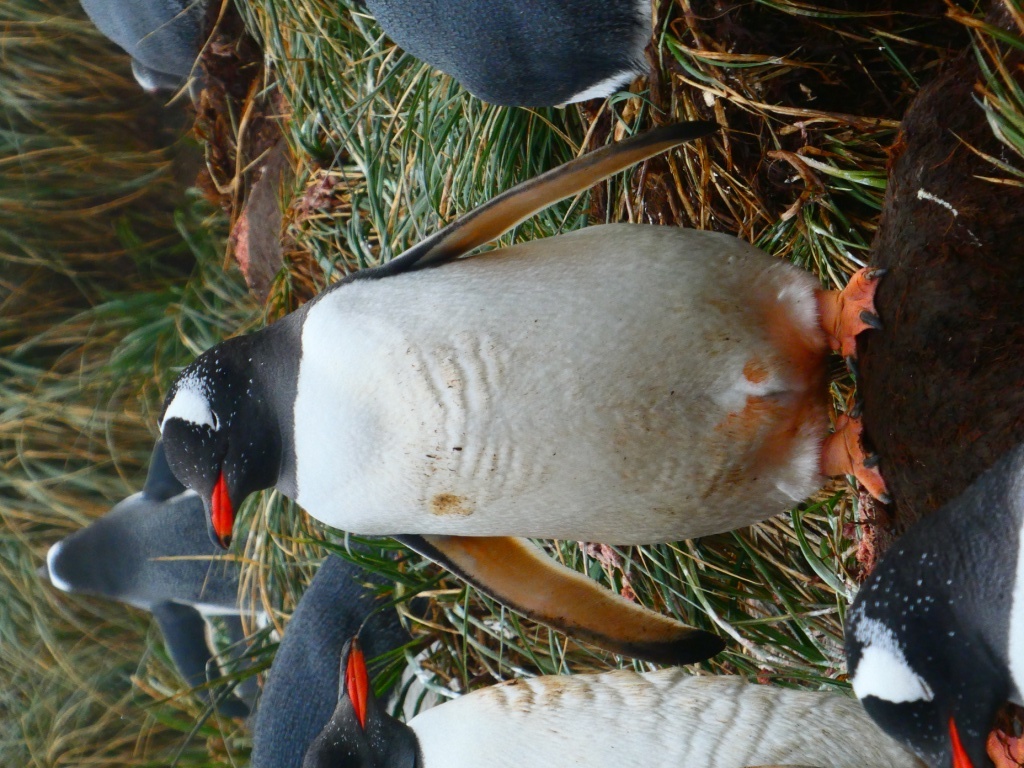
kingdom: Animalia
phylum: Chordata
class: Aves
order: Sphenisciformes
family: Spheniscidae
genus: Pygoscelis
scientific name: Pygoscelis papua
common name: Gentoo penguin
